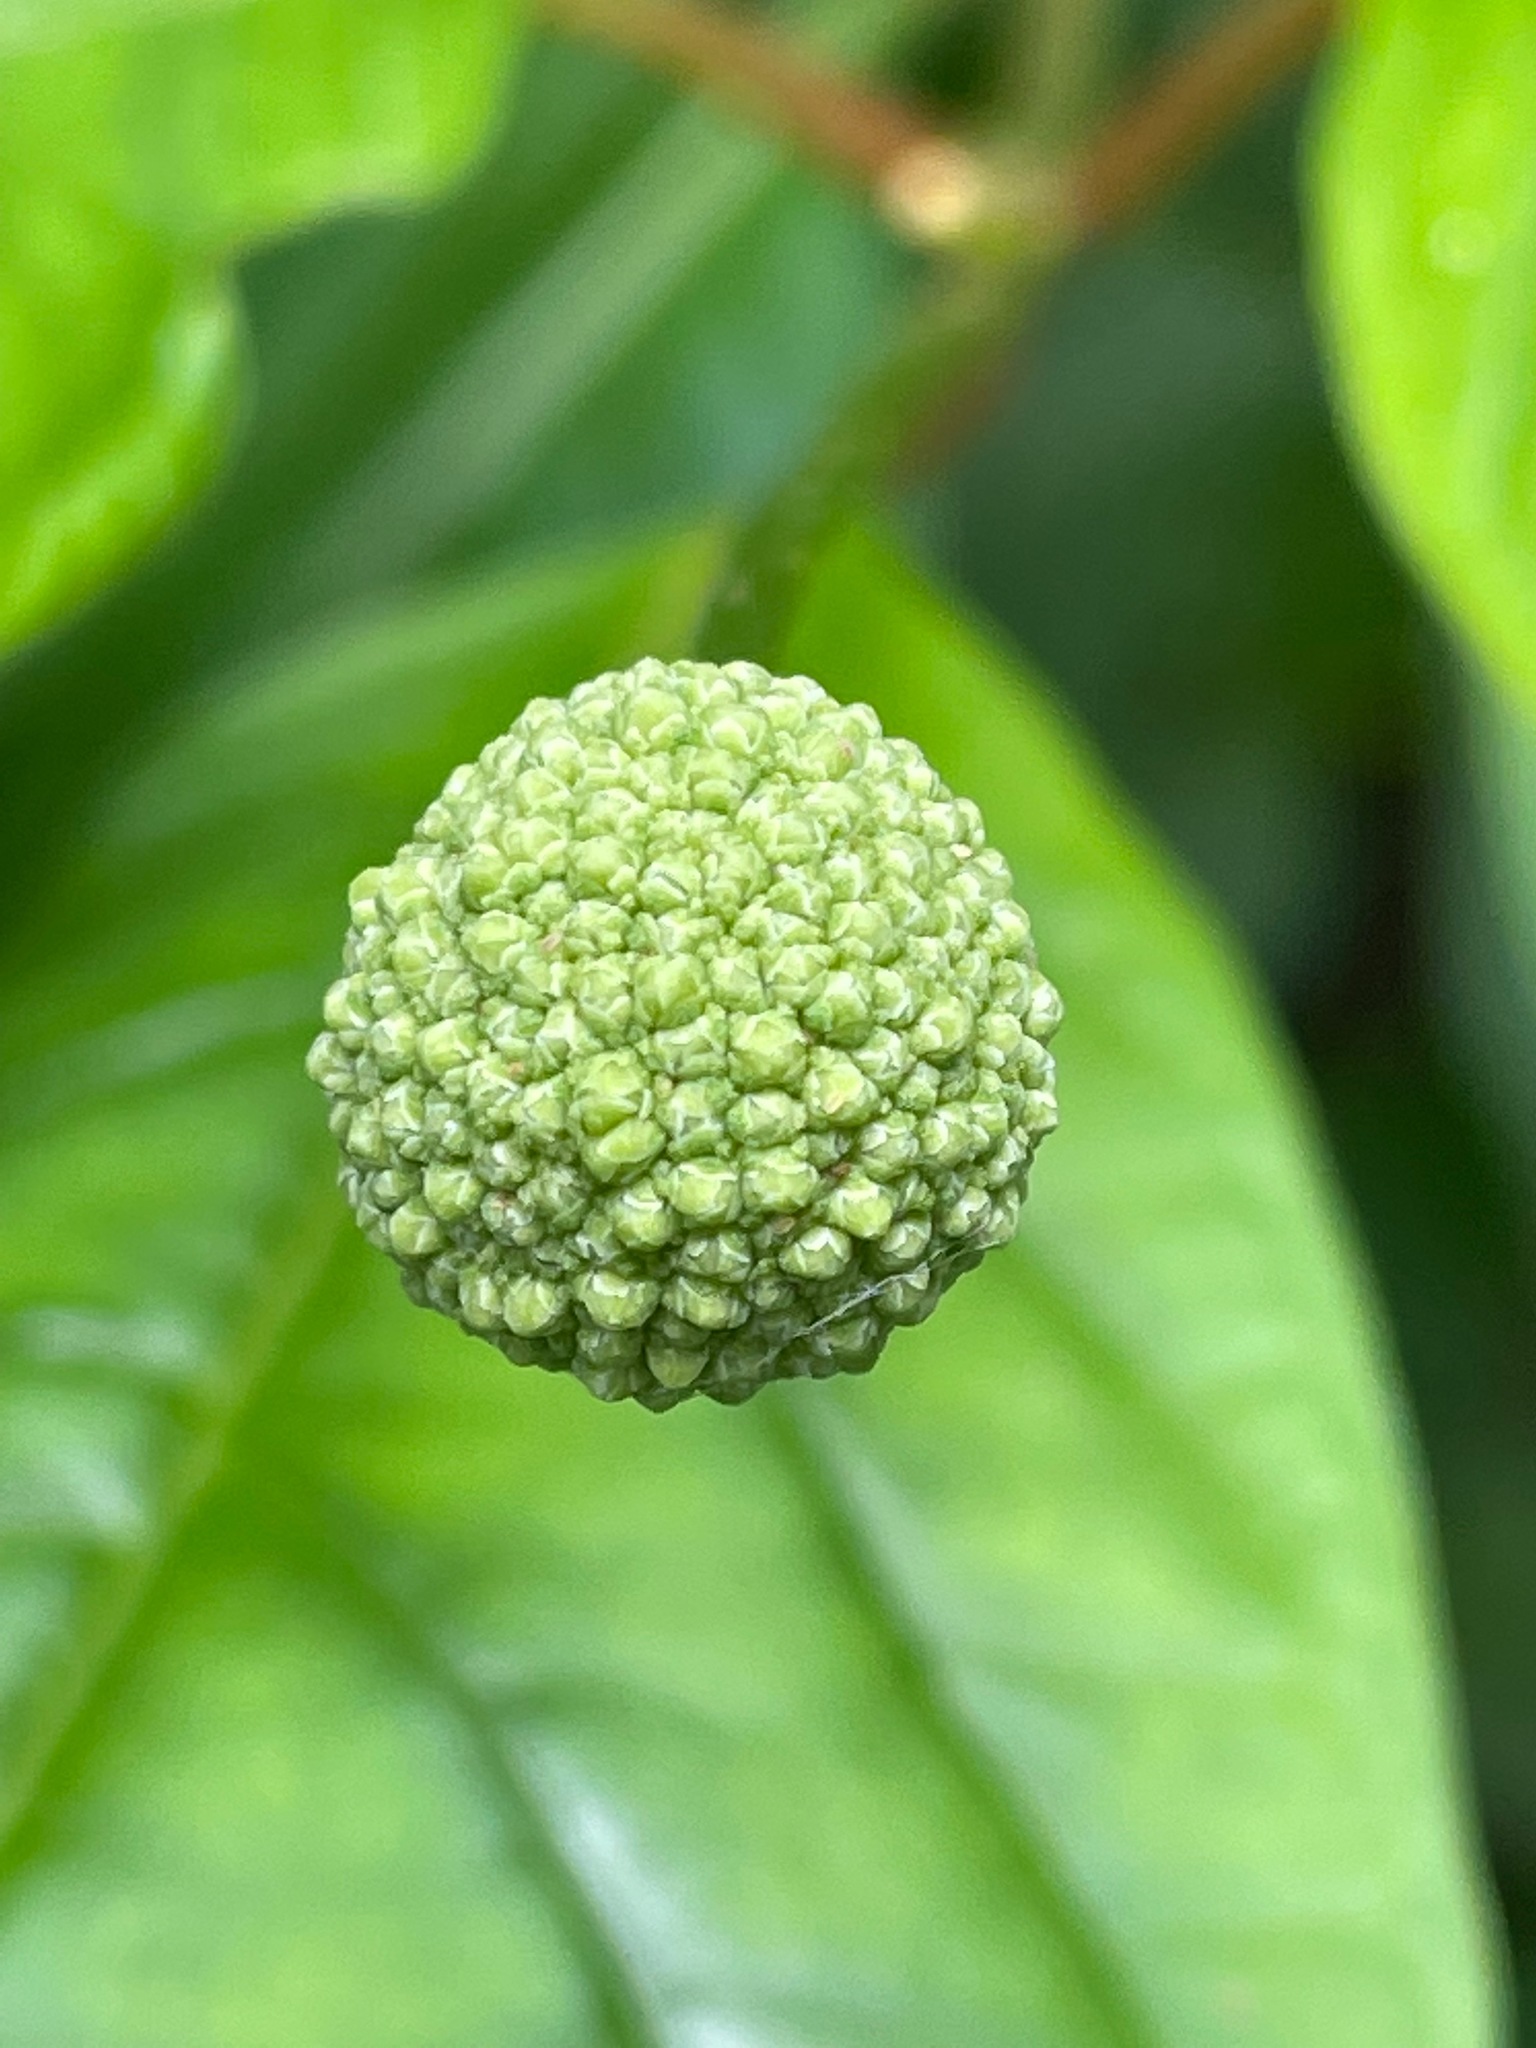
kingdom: Plantae
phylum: Tracheophyta
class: Magnoliopsida
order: Gentianales
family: Rubiaceae
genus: Cephalanthus
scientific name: Cephalanthus occidentalis
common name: Button-willow
